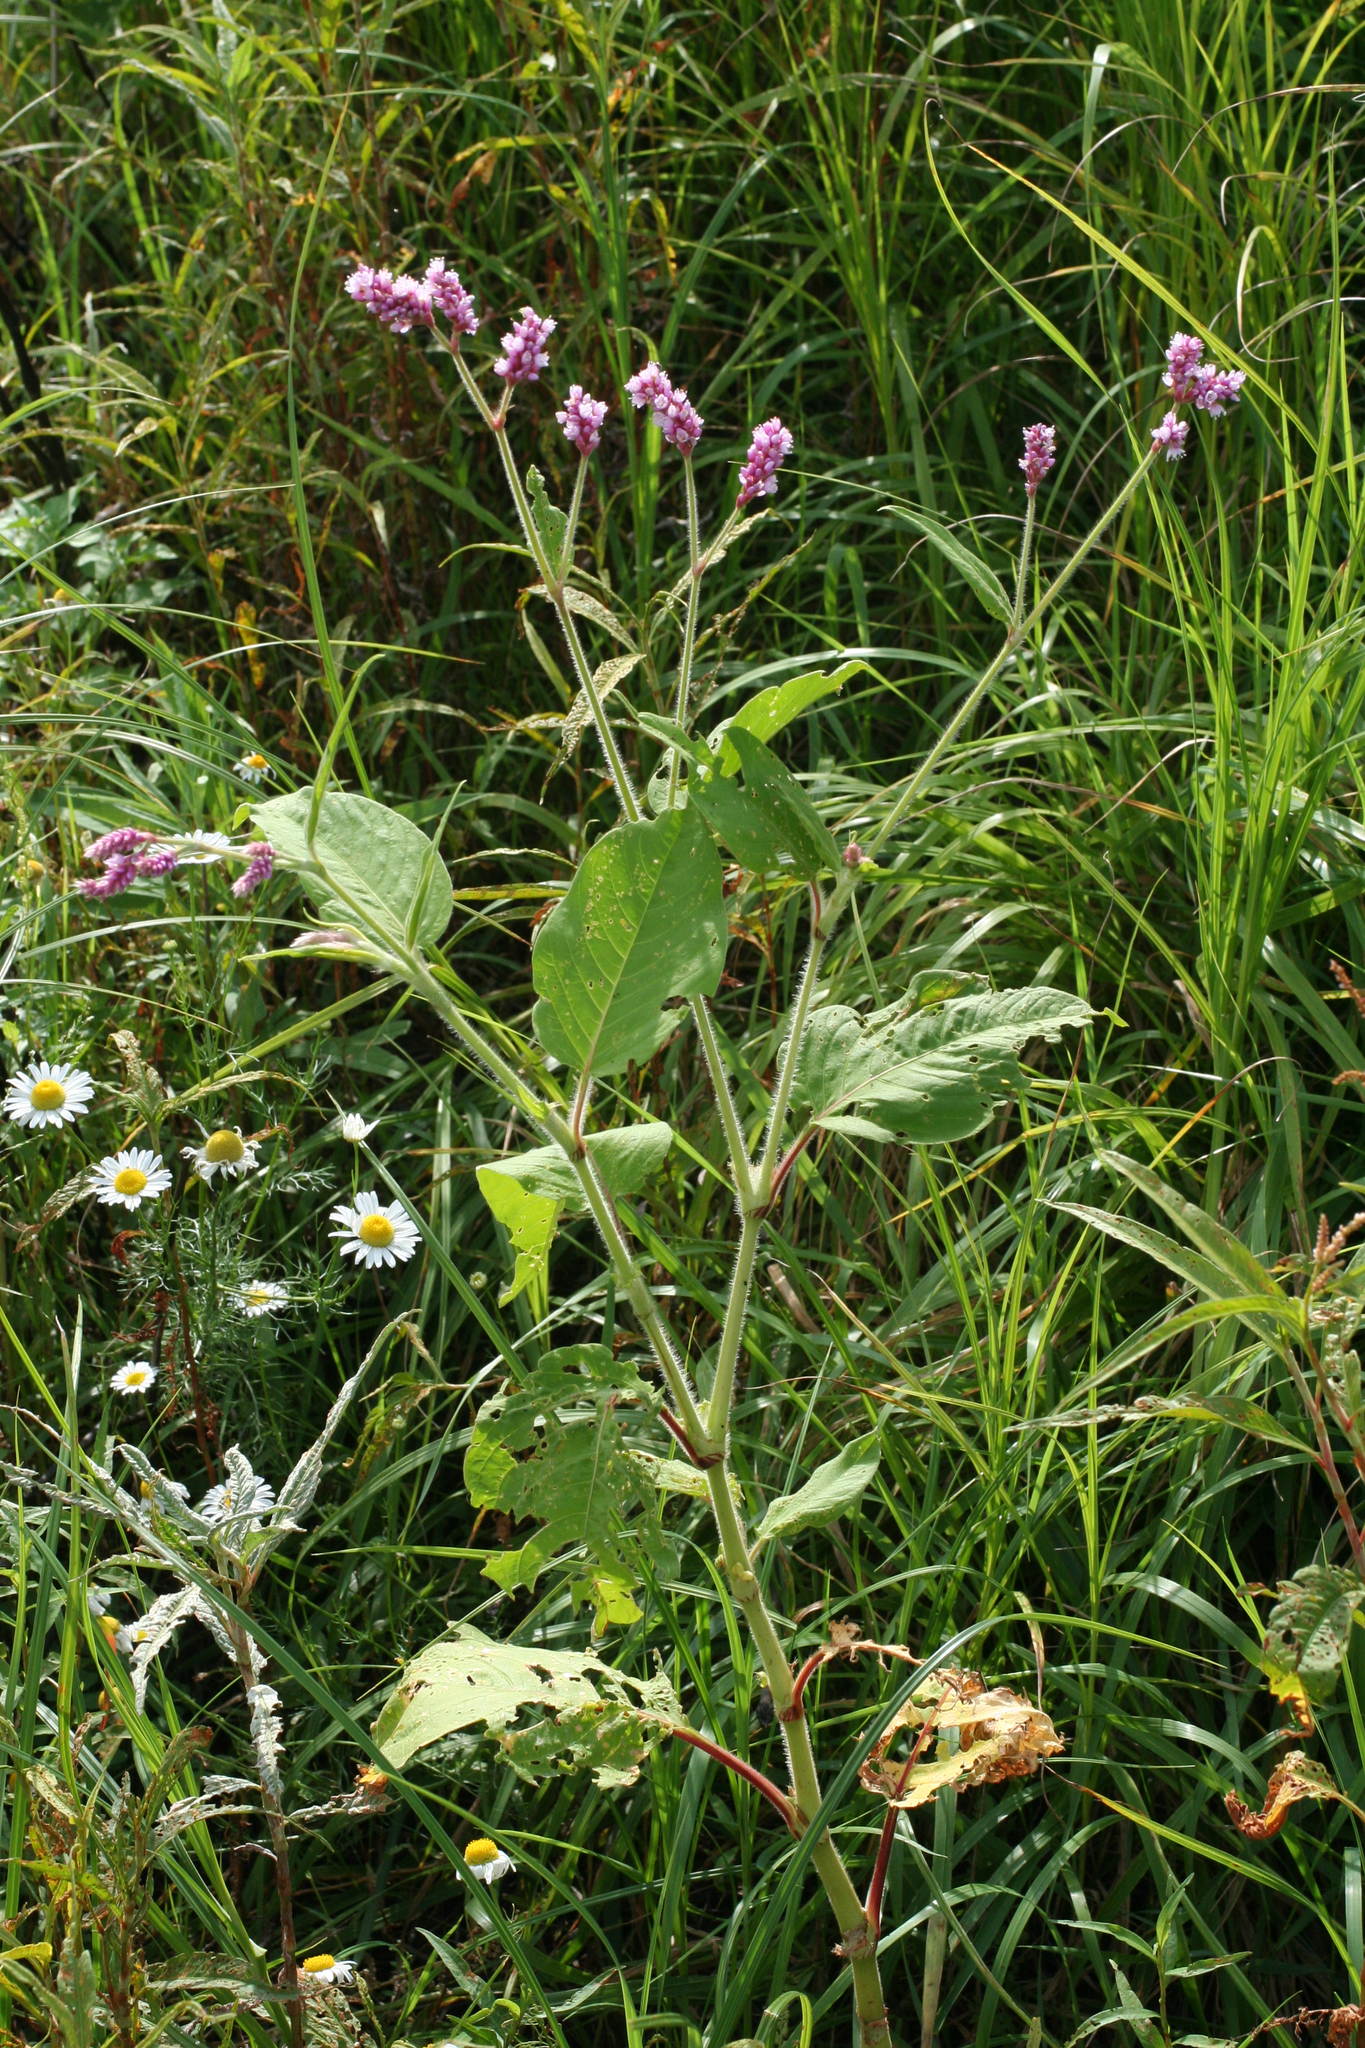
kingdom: Plantae
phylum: Tracheophyta
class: Magnoliopsida
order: Caryophyllales
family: Polygonaceae
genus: Persicaria
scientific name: Persicaria orientalis
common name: Kiss-me-over-the-garden-gate
